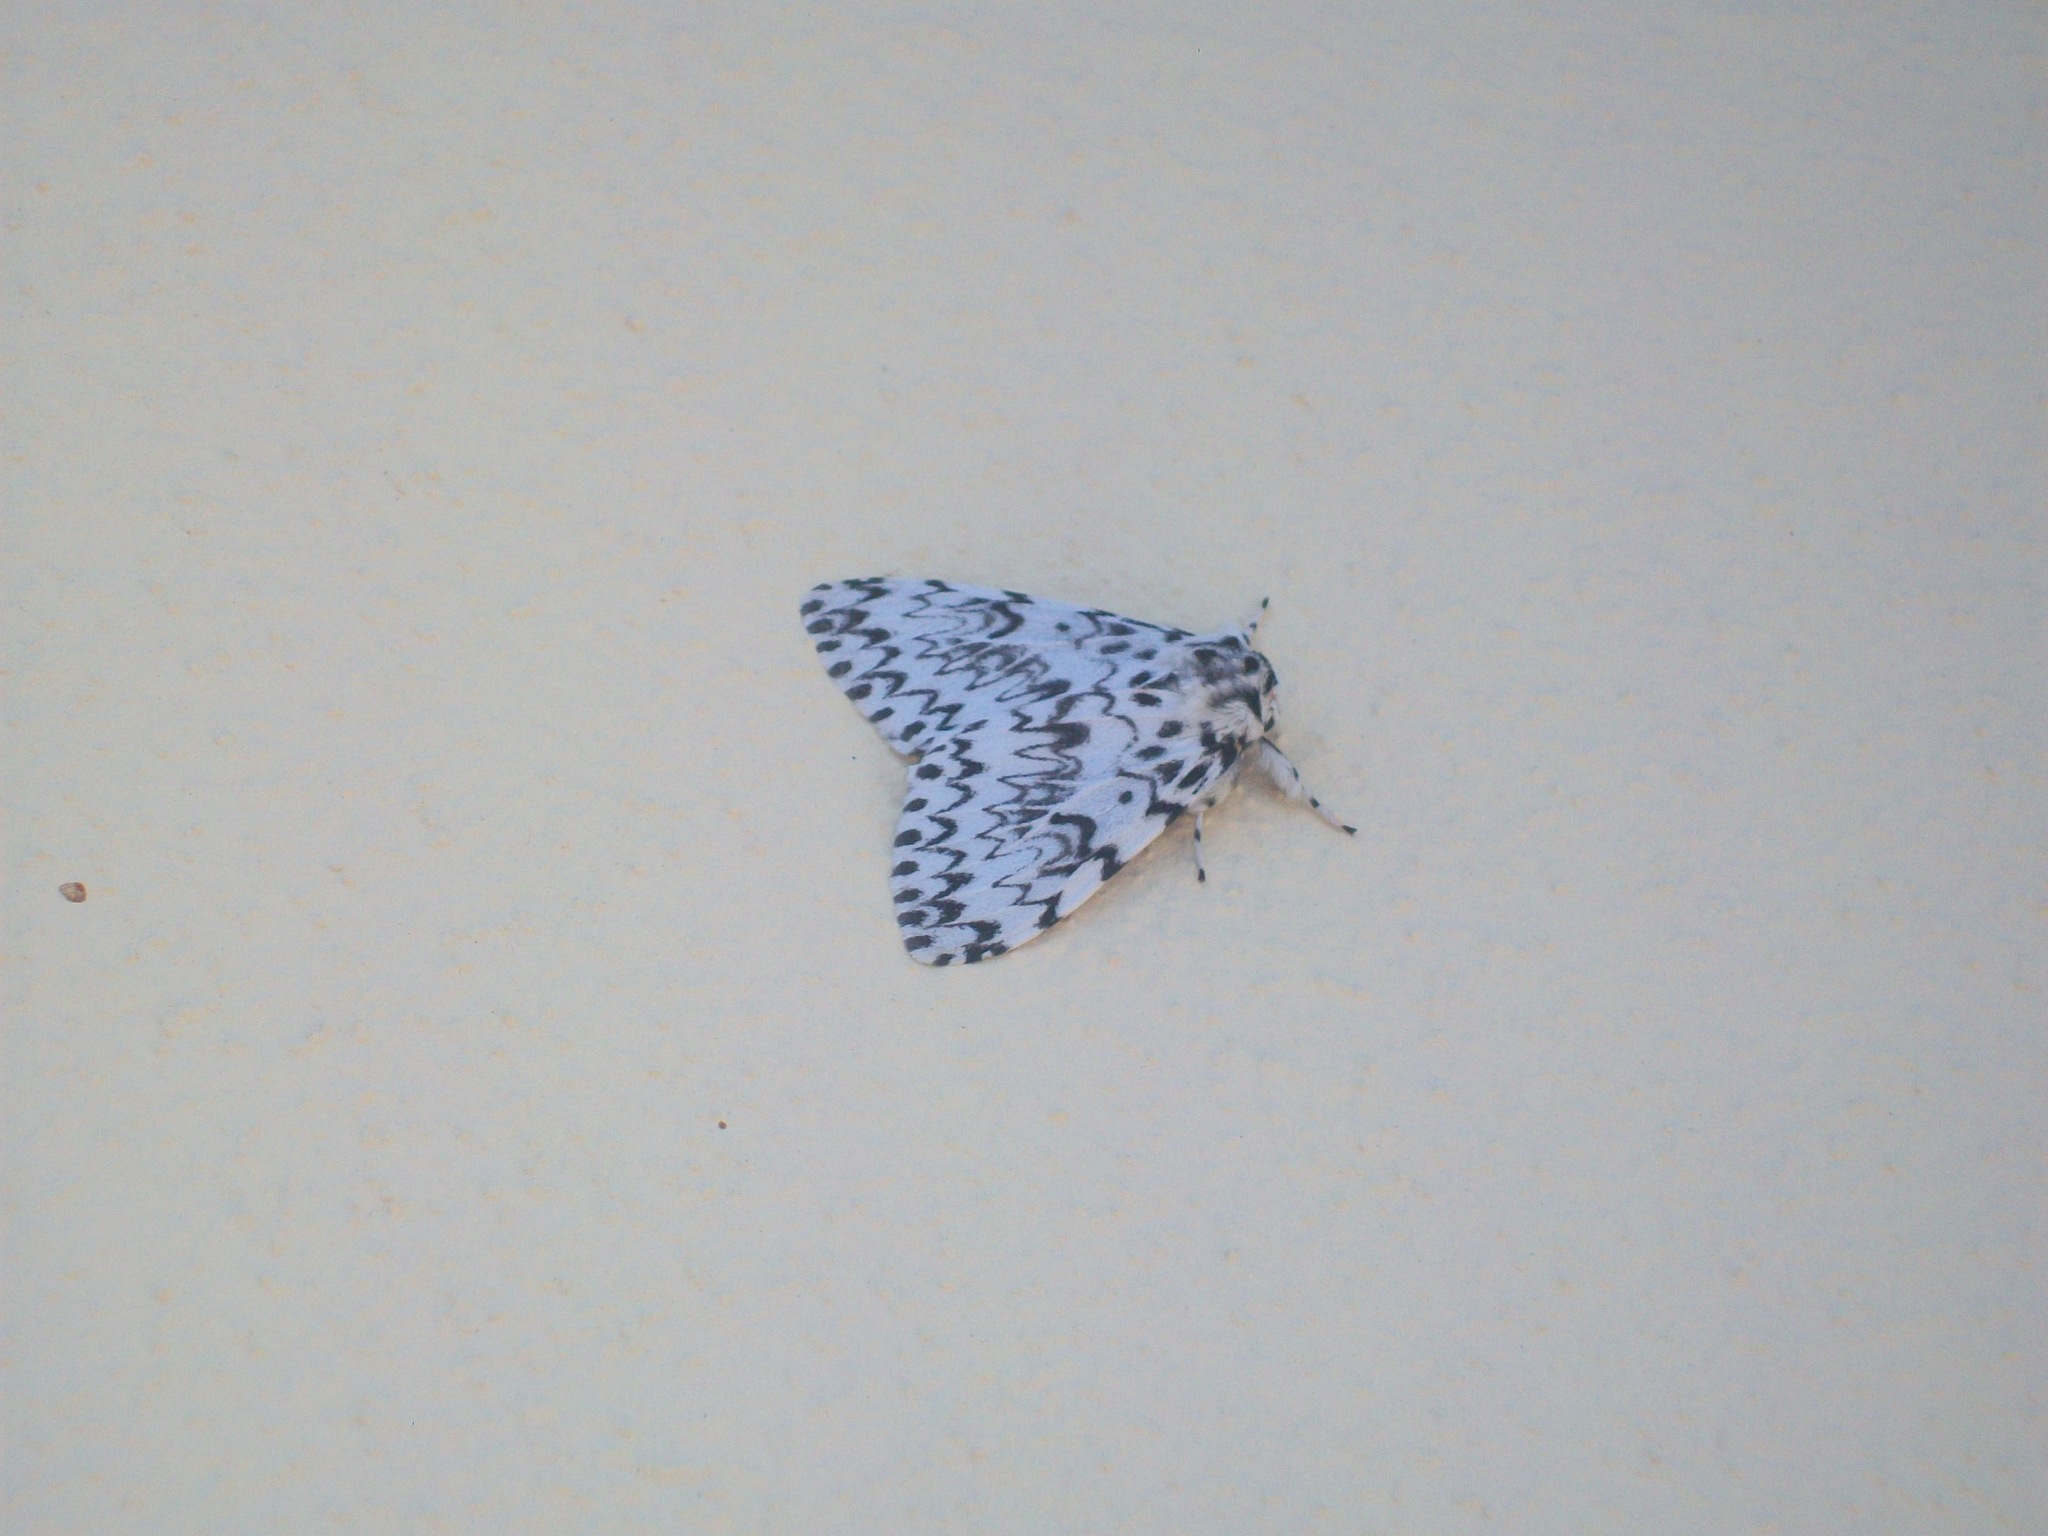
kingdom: Animalia
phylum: Arthropoda
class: Insecta
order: Lepidoptera
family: Erebidae
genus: Lymantria
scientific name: Lymantria monacha
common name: Black arches
